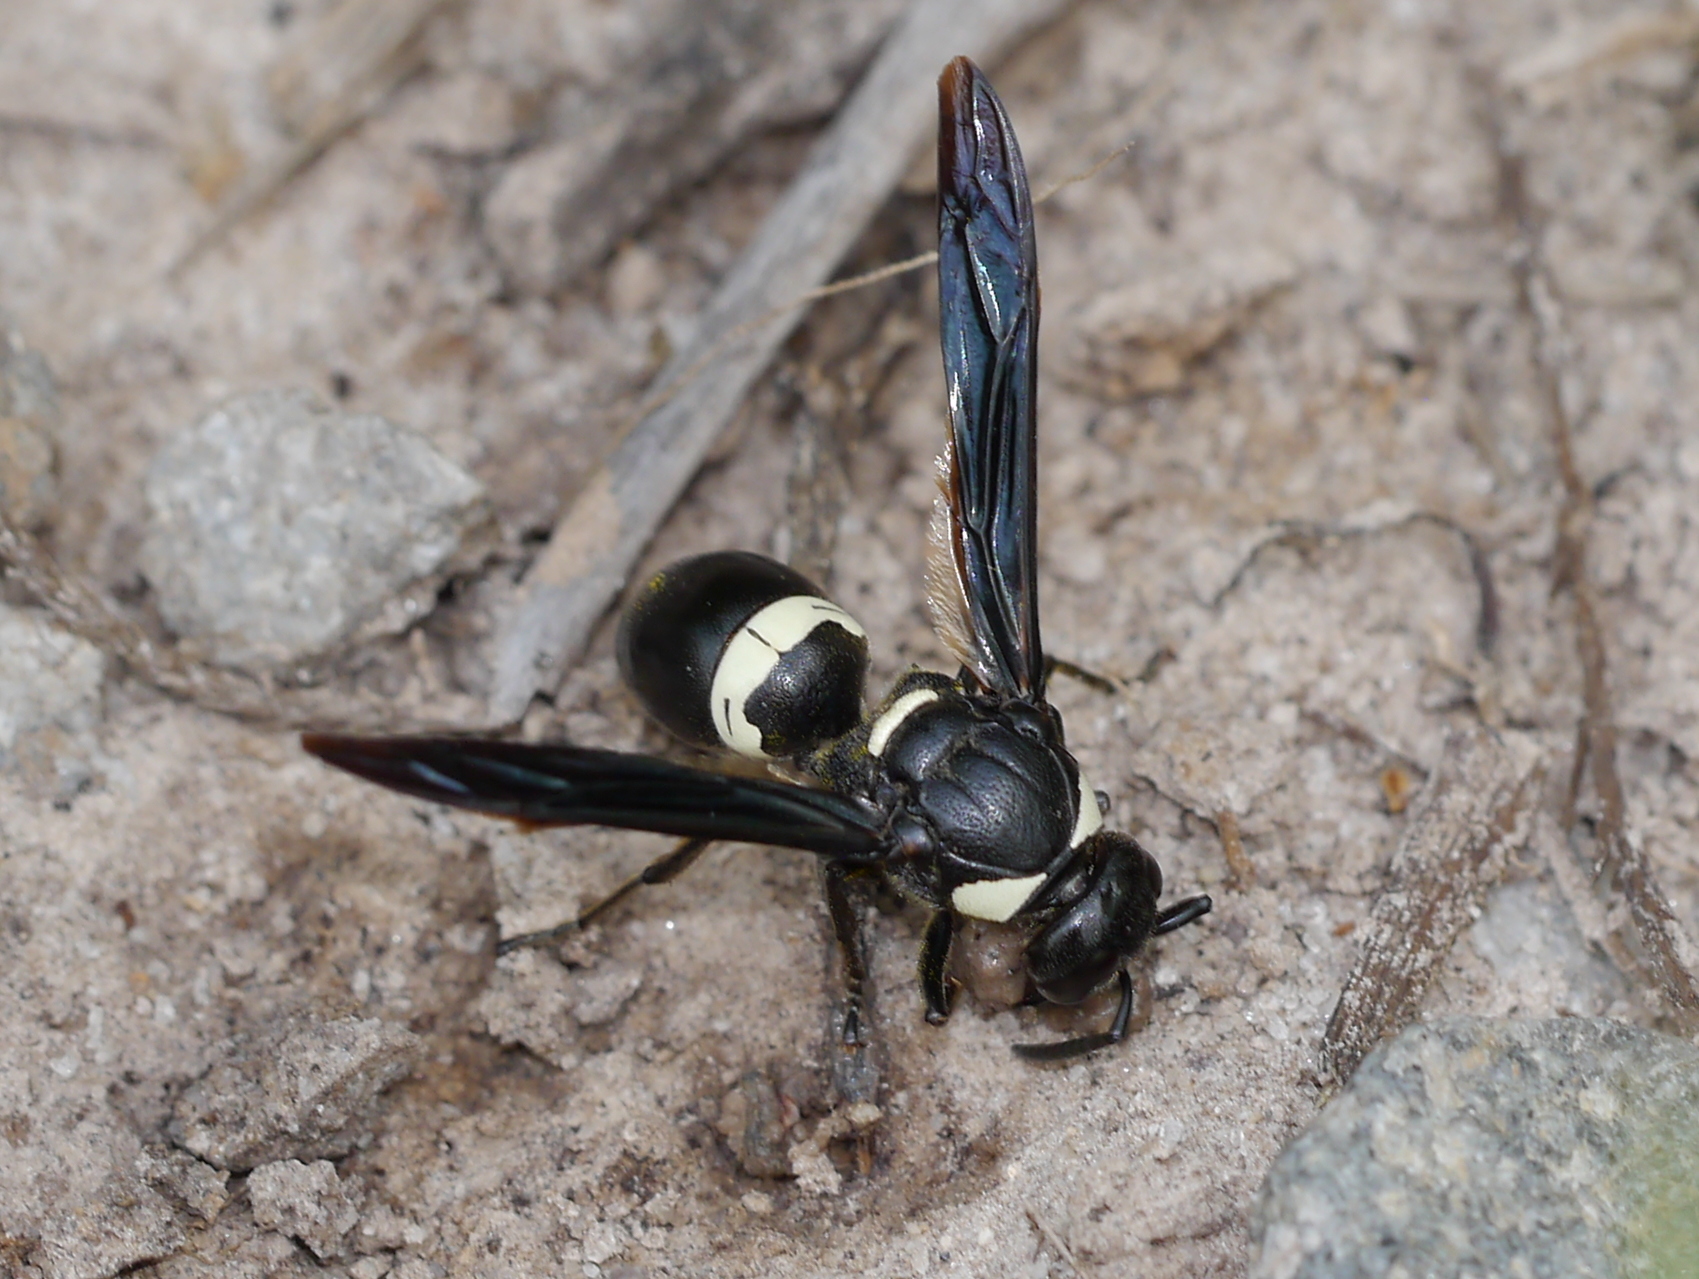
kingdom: Animalia
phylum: Arthropoda
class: Insecta
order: Hymenoptera
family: Eumenidae
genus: Monobia
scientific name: Monobia quadridens
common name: Four-toothed mason wasp
